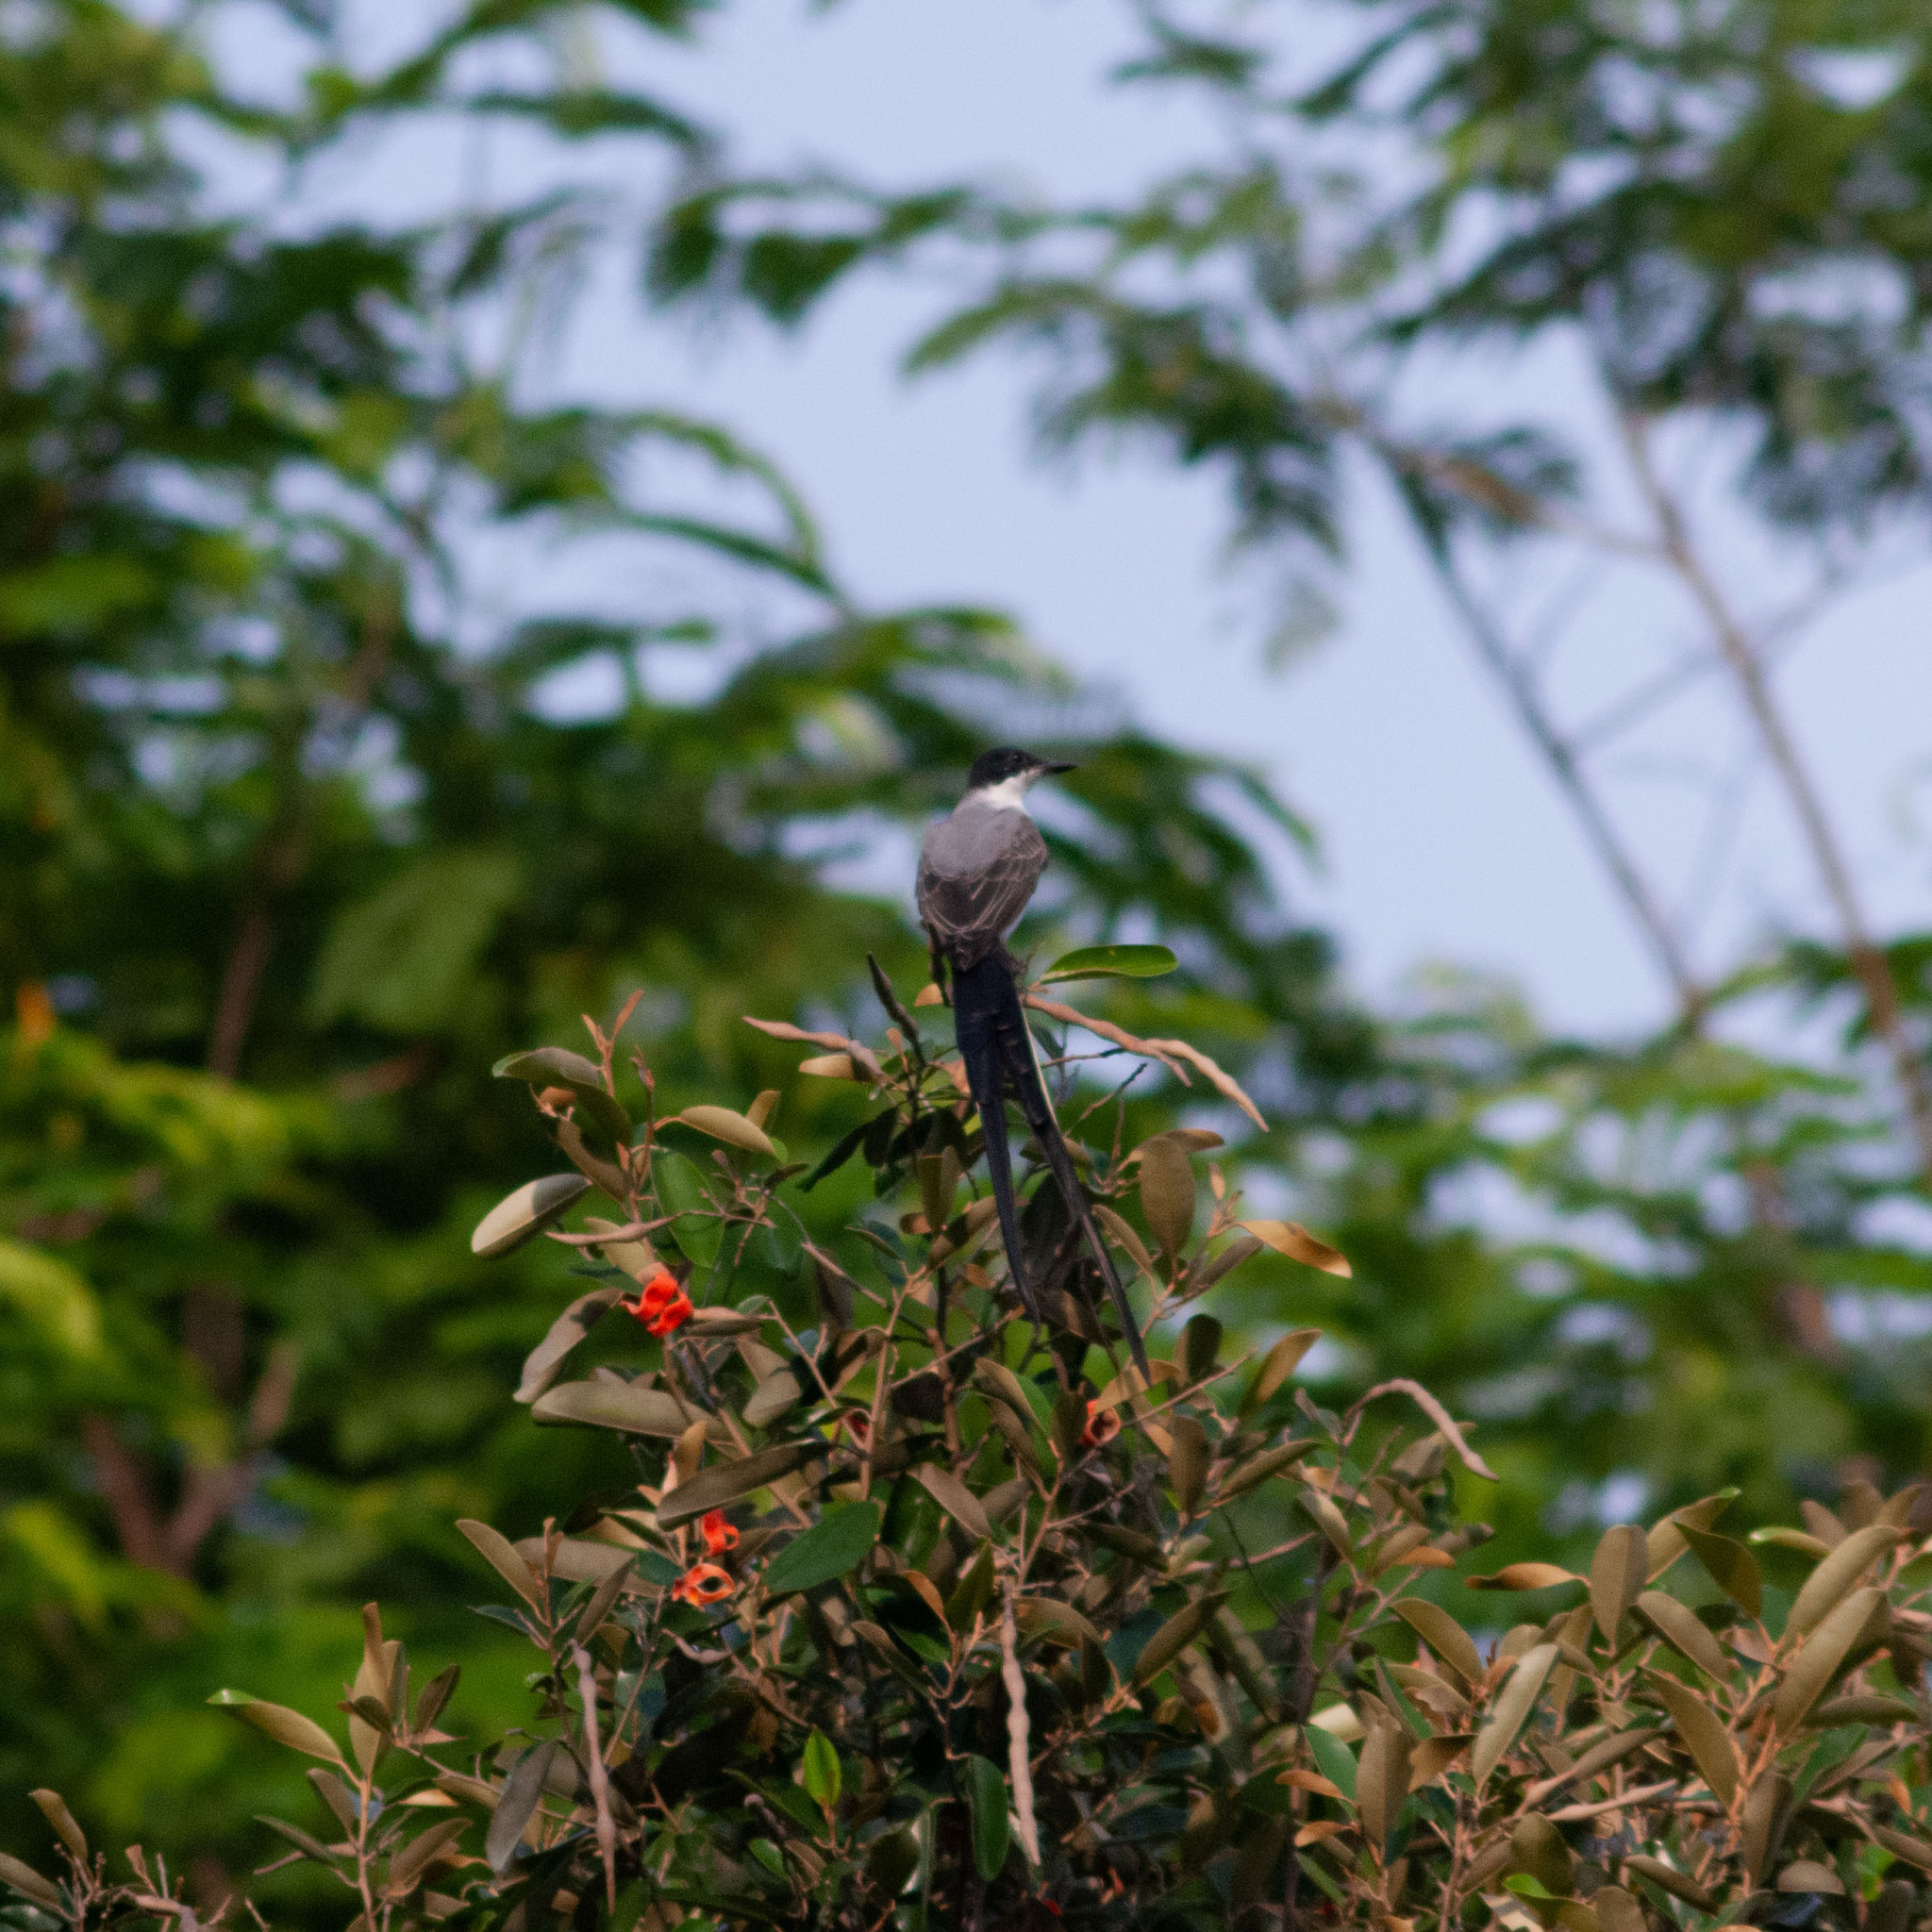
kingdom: Animalia
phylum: Chordata
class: Aves
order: Passeriformes
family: Tyrannidae
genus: Tyrannus
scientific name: Tyrannus savana
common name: Fork-tailed flycatcher
